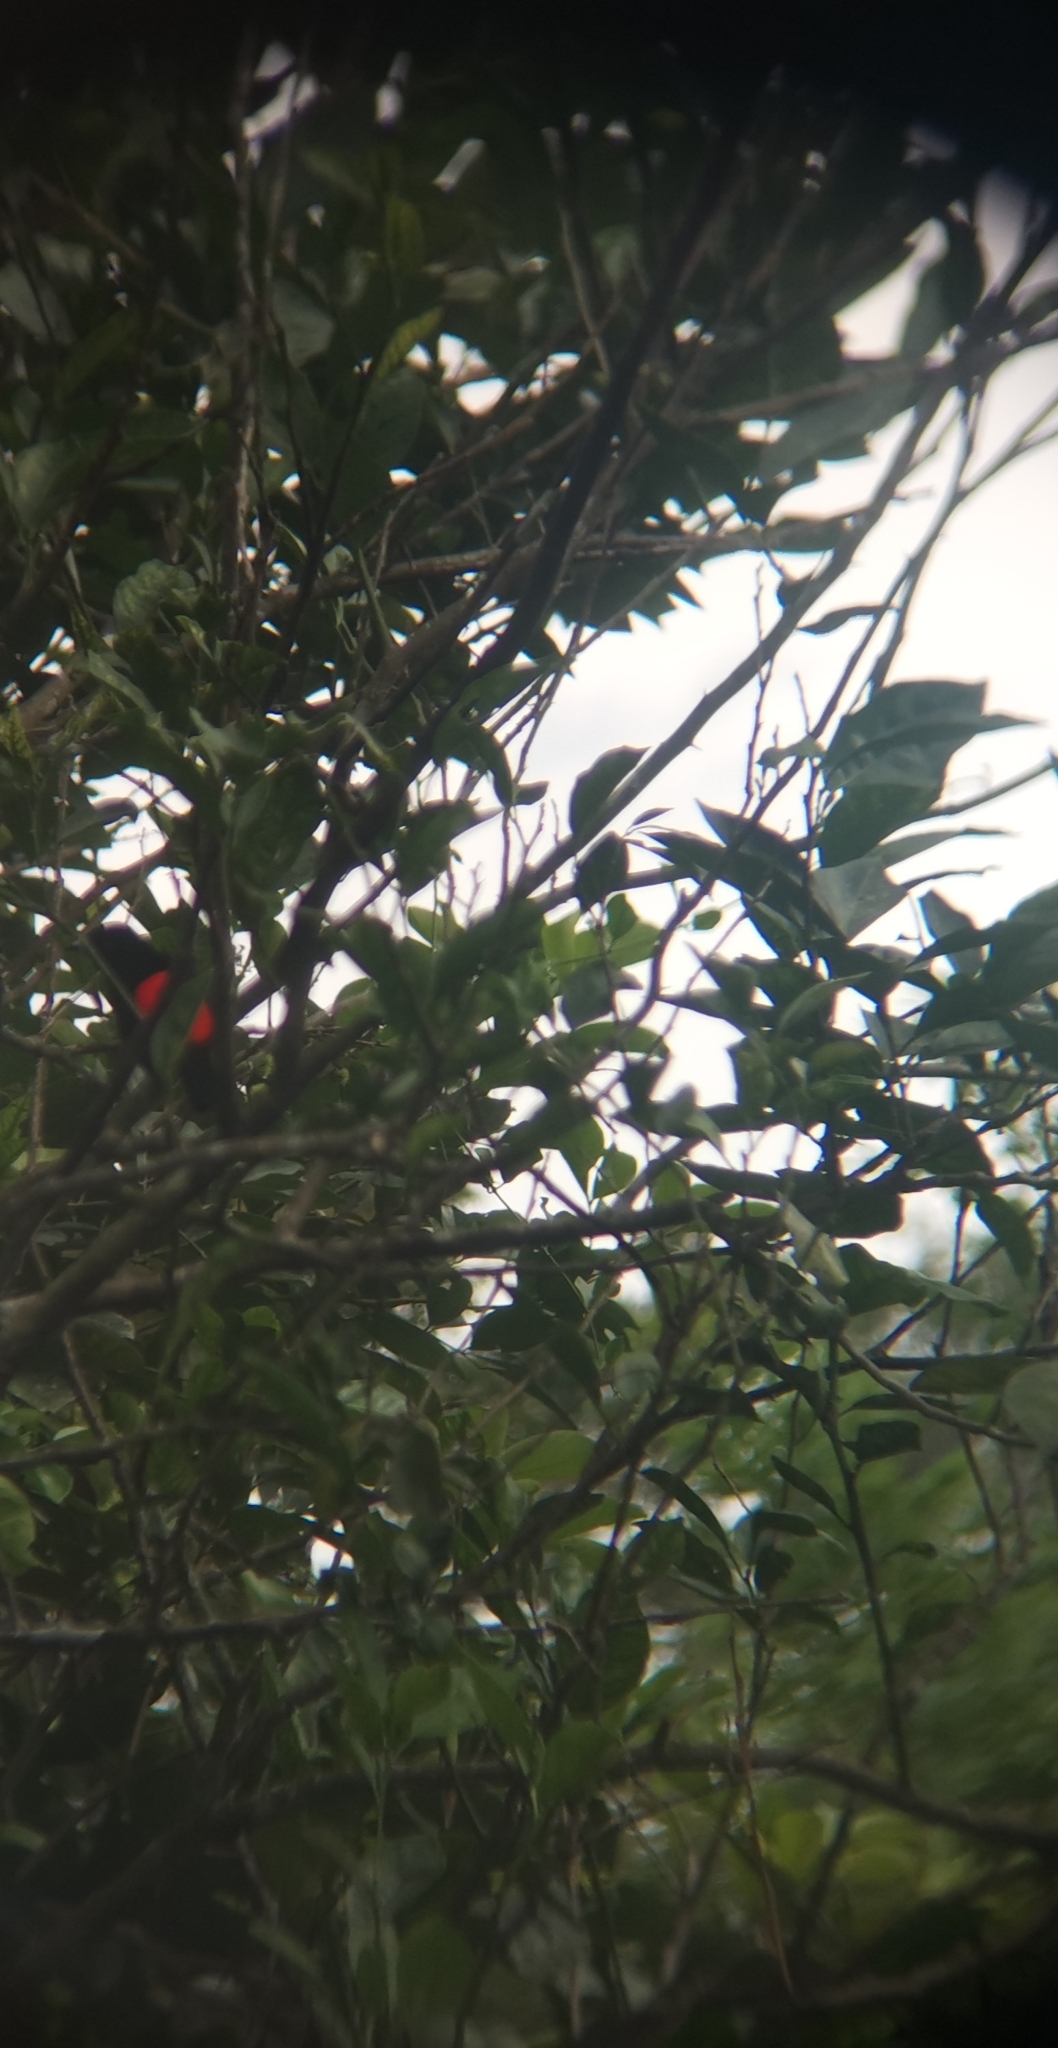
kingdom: Animalia
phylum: Chordata
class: Aves
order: Passeriformes
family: Thraupidae
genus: Ramphocelus
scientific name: Ramphocelus passerinii
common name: Passerini's tanager
